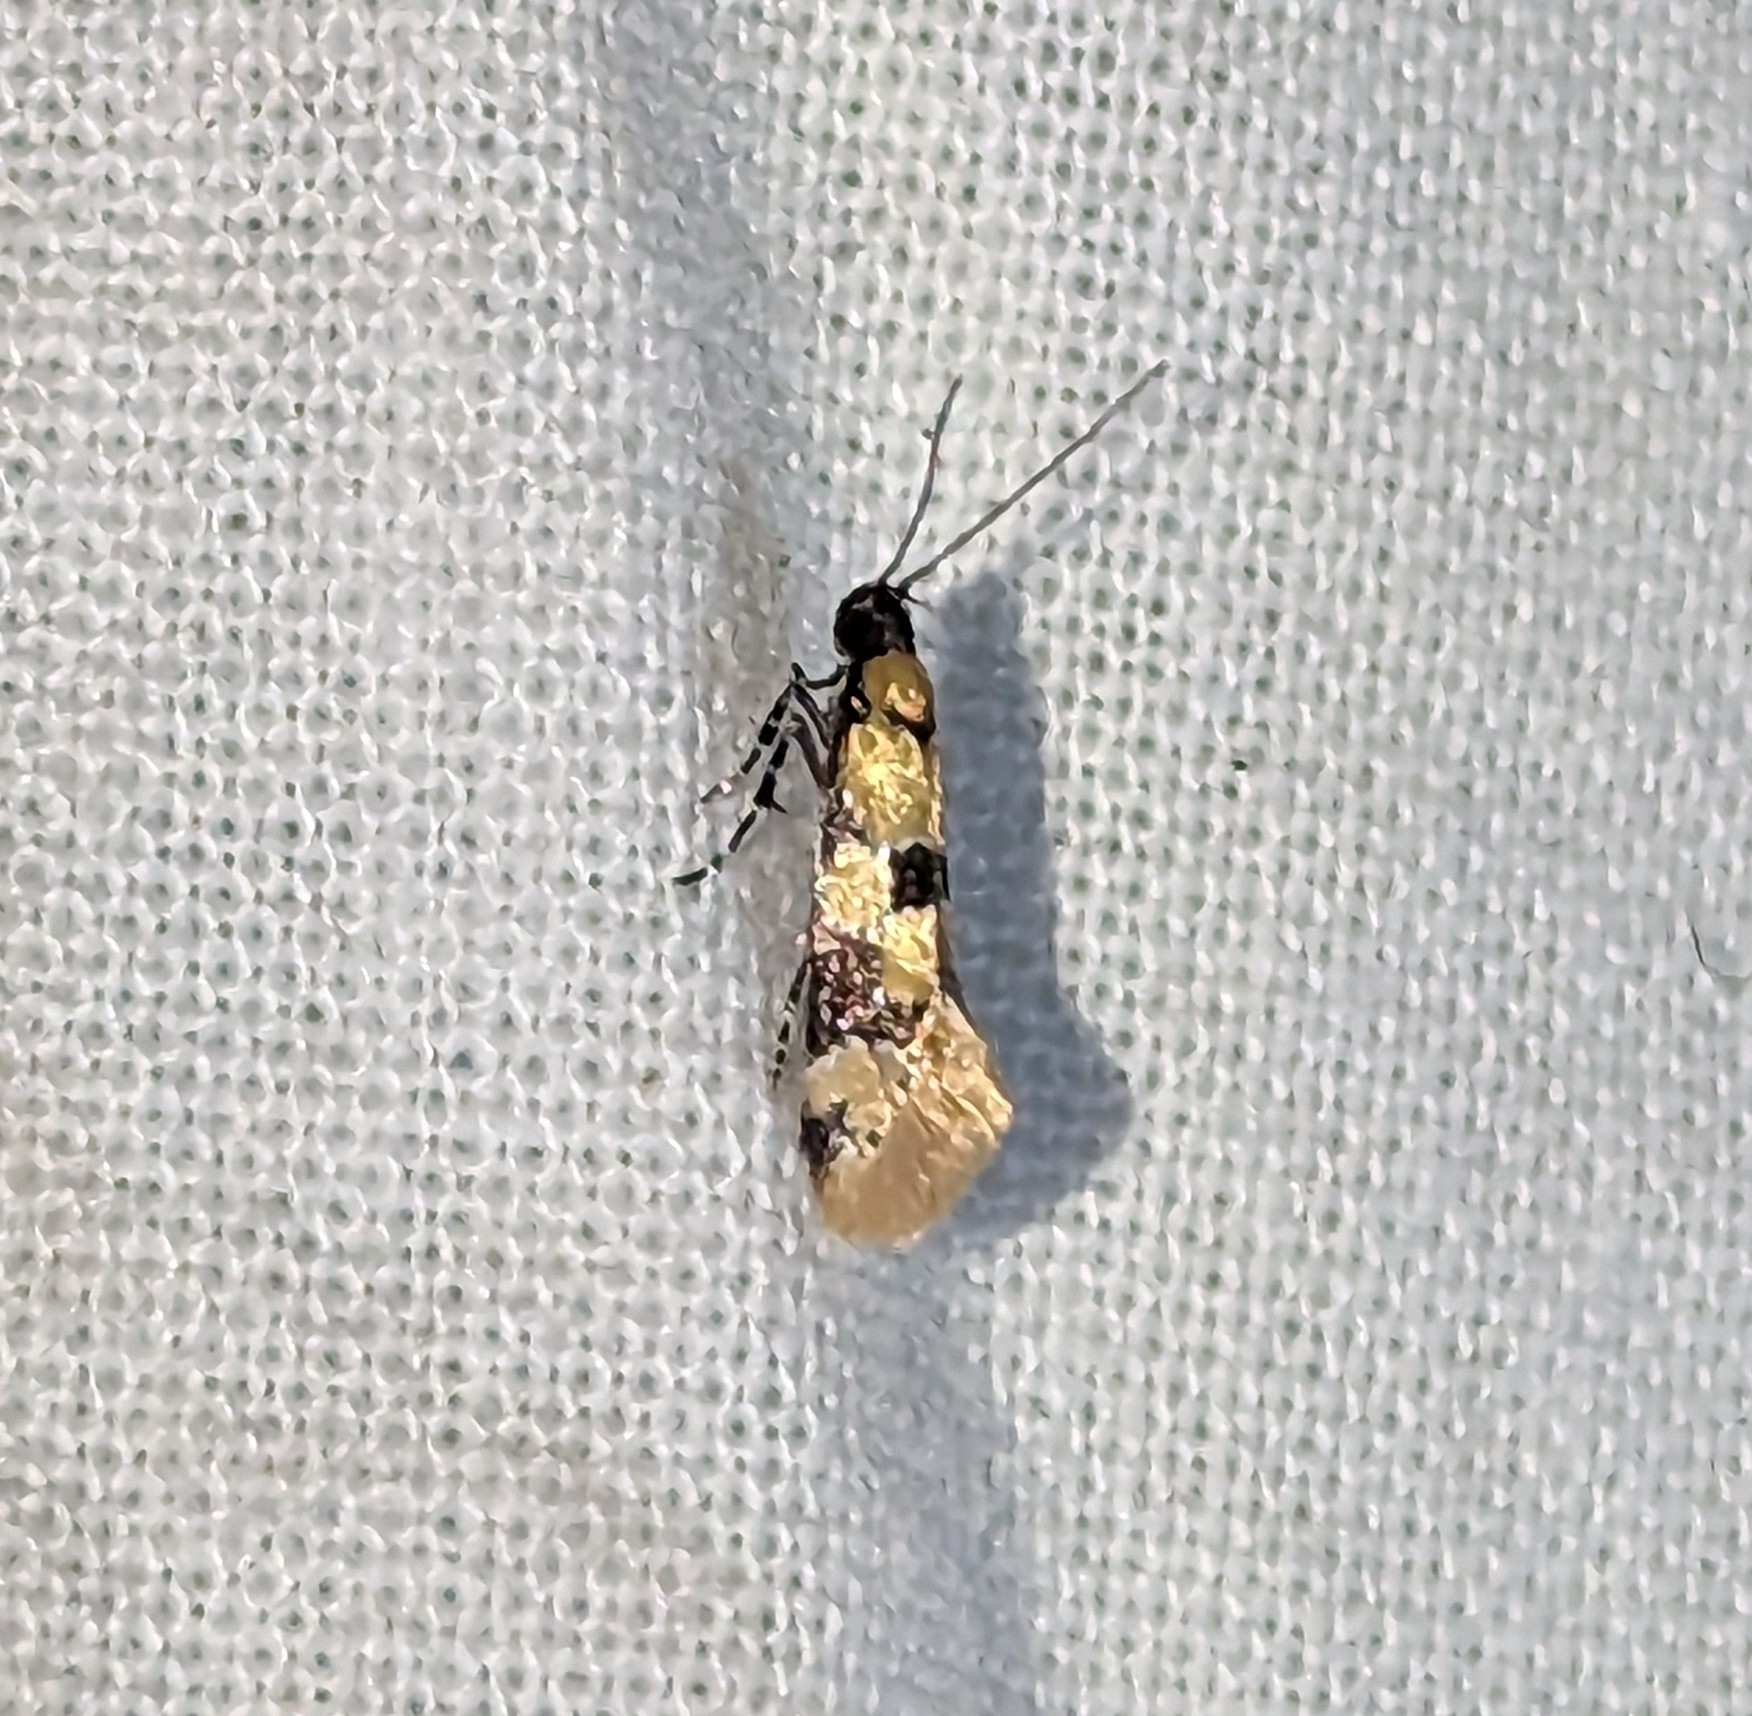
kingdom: Animalia
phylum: Arthropoda
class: Insecta
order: Lepidoptera
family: Oecophoridae
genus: Decantha
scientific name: Decantha stonda
